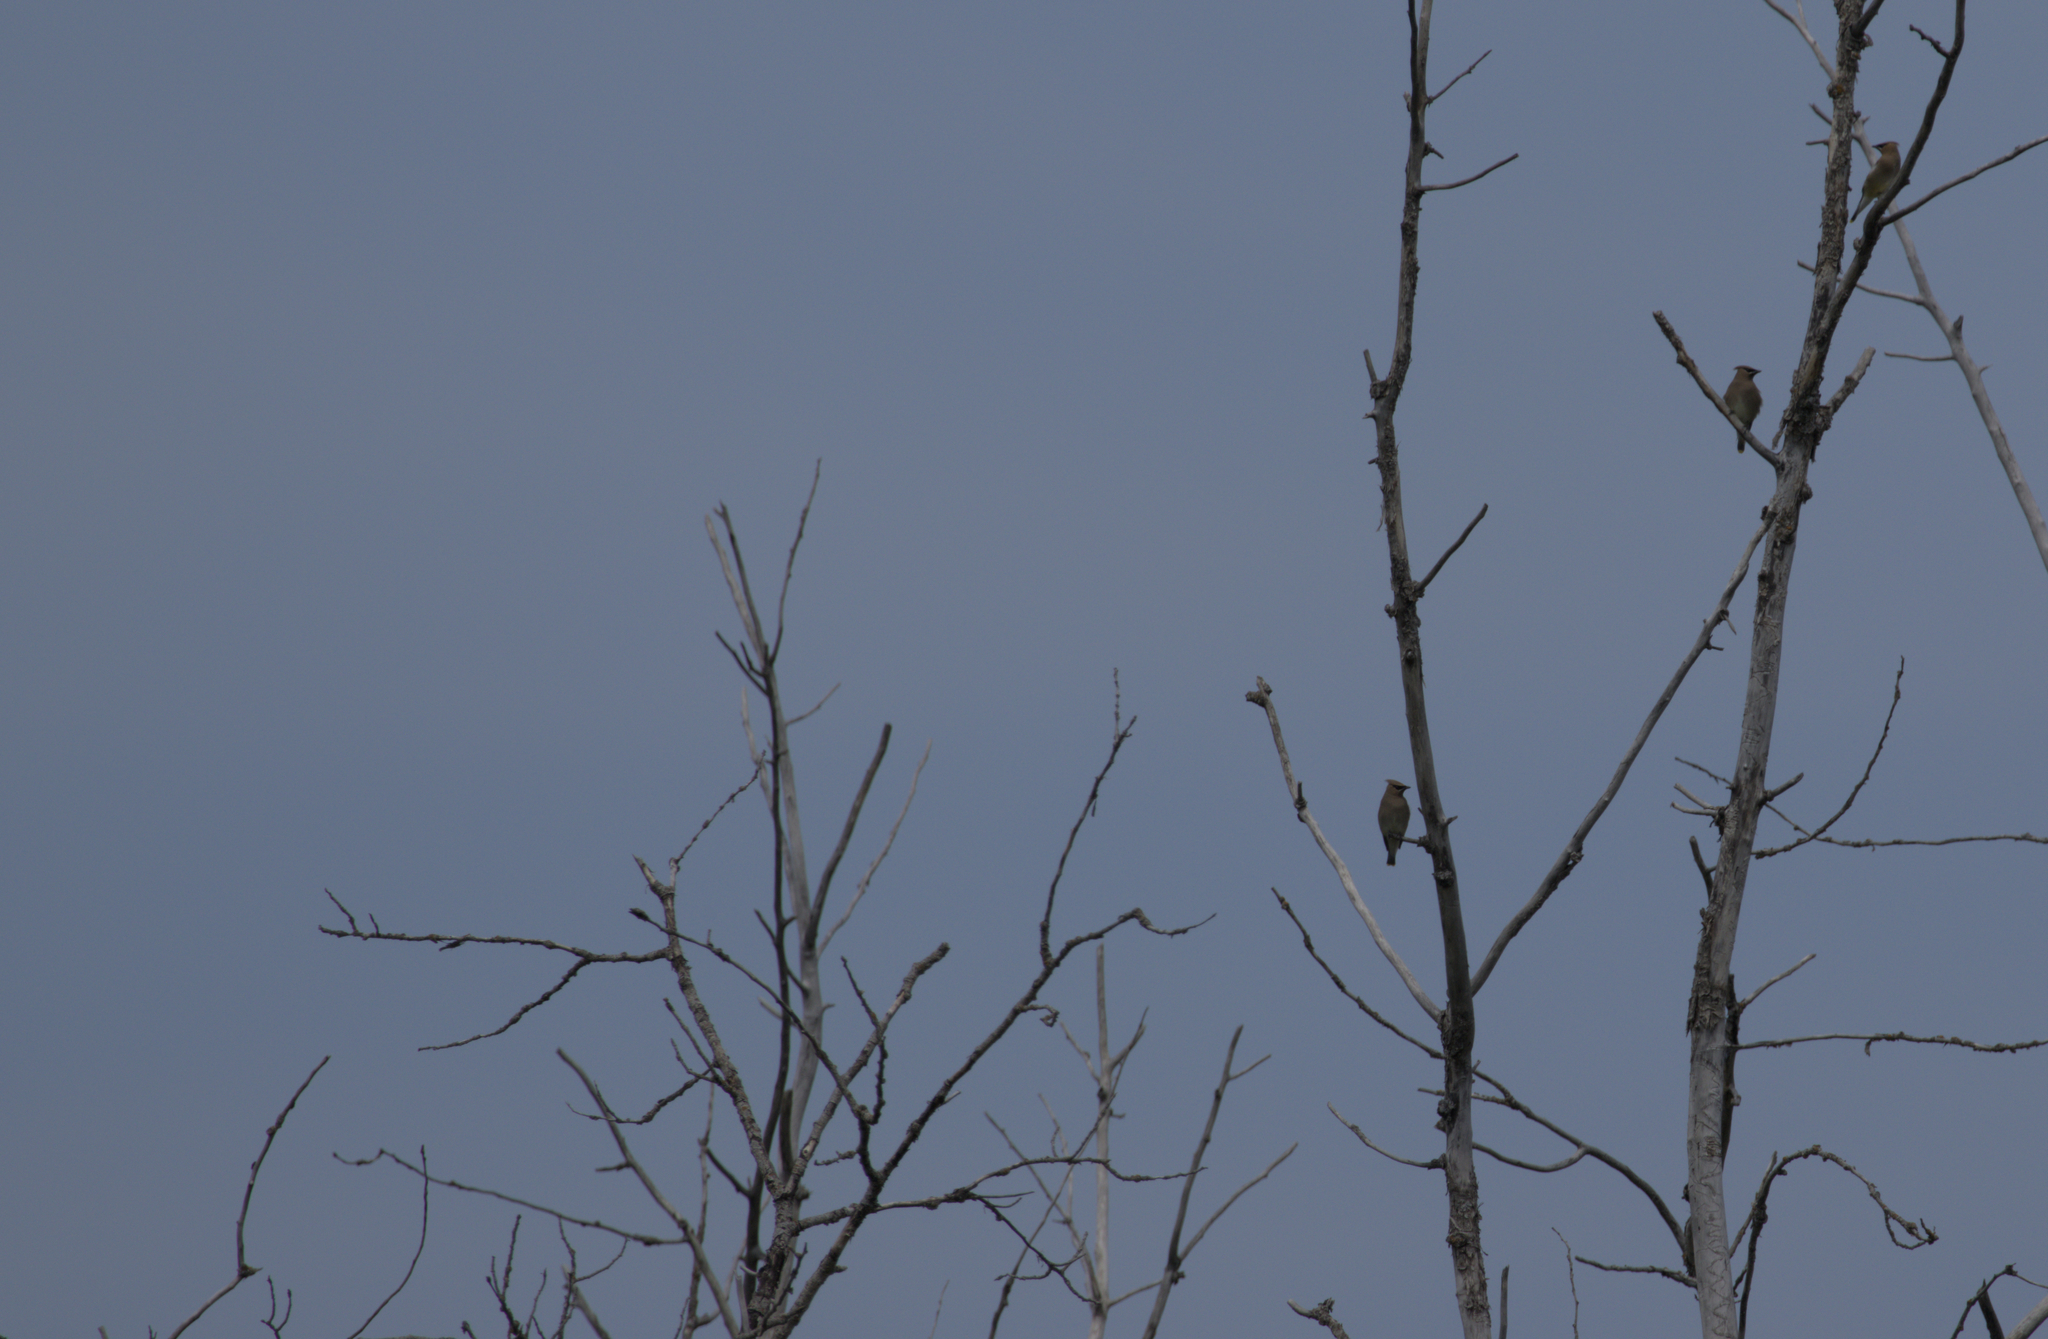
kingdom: Animalia
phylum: Chordata
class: Aves
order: Passeriformes
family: Bombycillidae
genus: Bombycilla
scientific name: Bombycilla cedrorum
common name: Cedar waxwing
